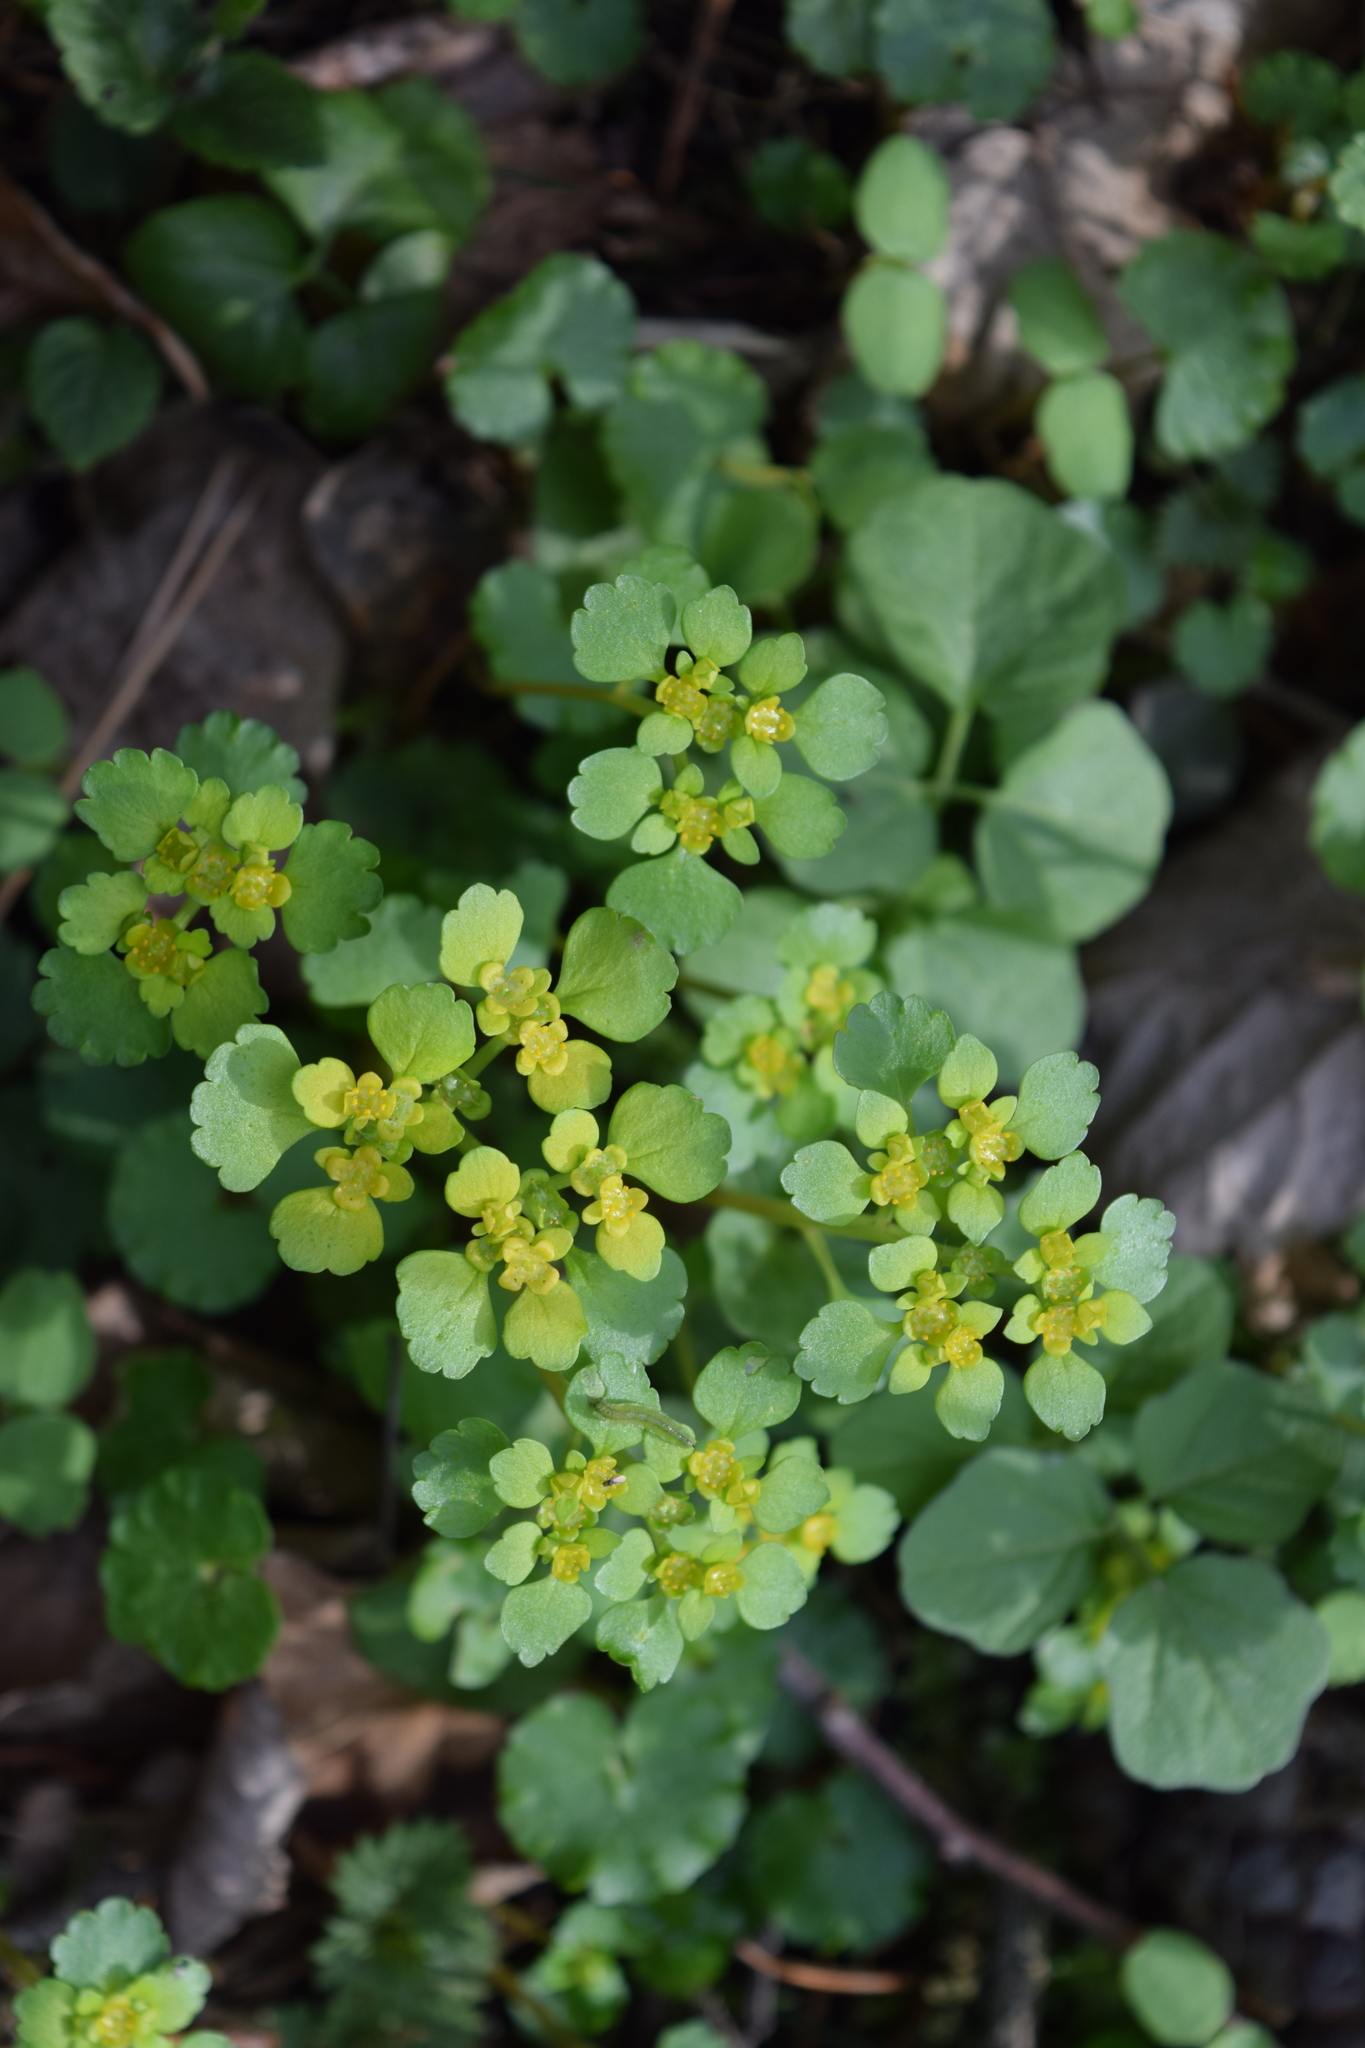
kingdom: Plantae
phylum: Tracheophyta
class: Magnoliopsida
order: Saxifragales
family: Saxifragaceae
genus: Chrysosplenium
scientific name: Chrysosplenium alternifolium
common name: Alternate-leaved golden-saxifrage
